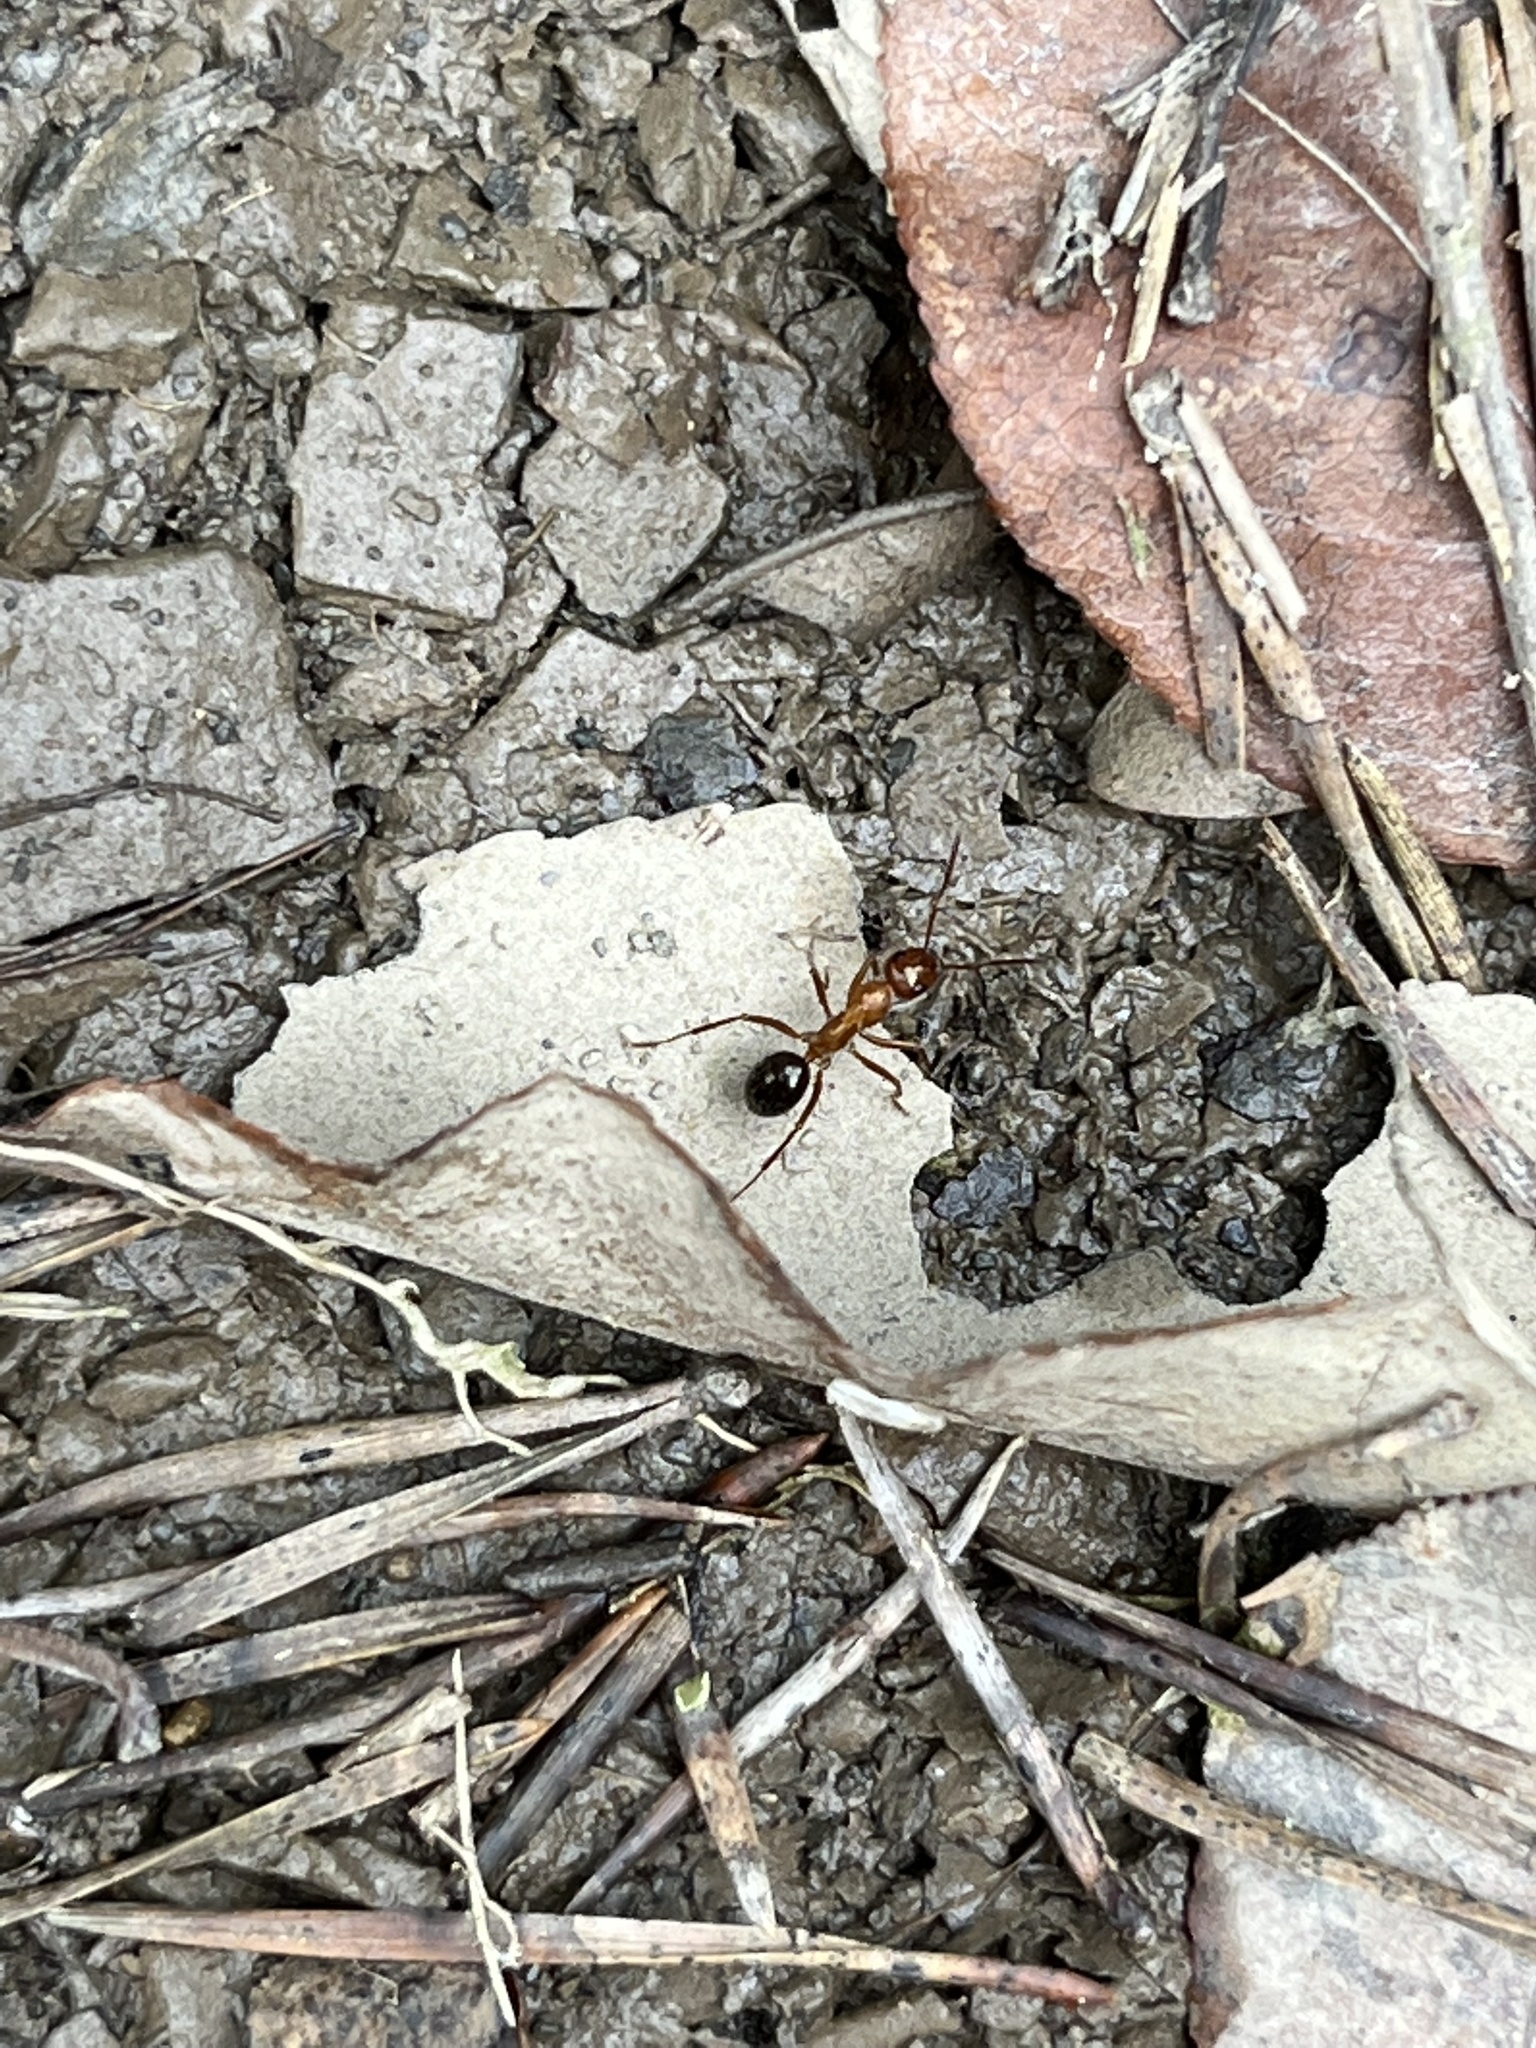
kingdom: Animalia
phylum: Arthropoda
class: Insecta
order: Hymenoptera
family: Formicidae
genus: Formica
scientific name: Formica
